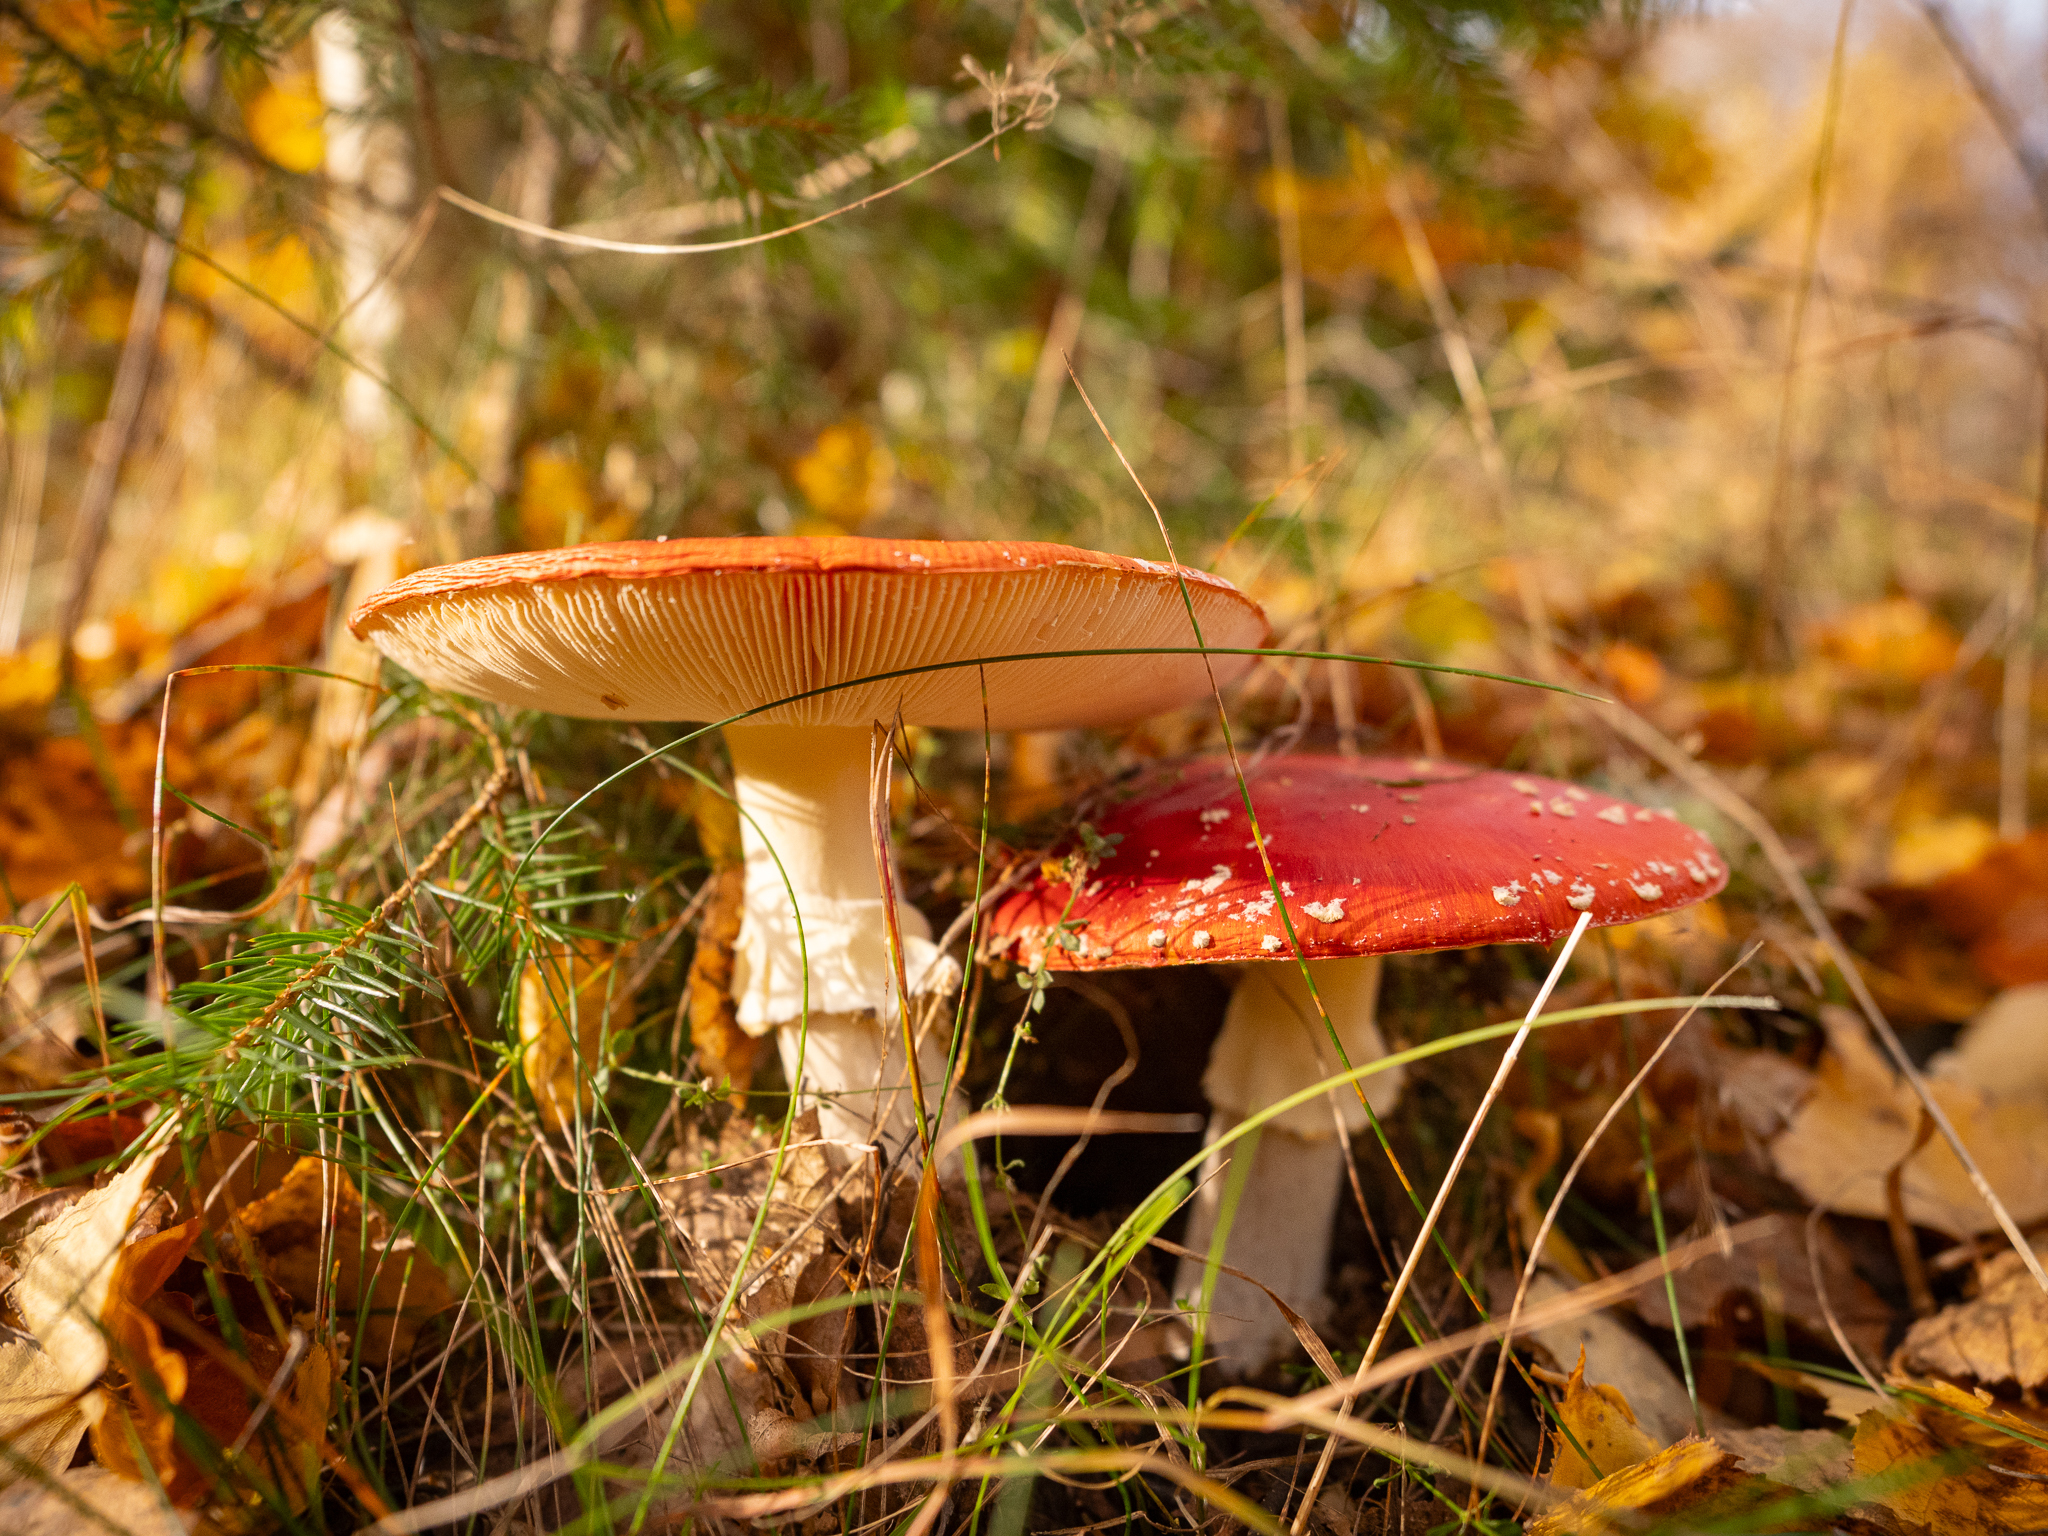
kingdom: Fungi
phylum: Basidiomycota
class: Agaricomycetes
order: Agaricales
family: Amanitaceae
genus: Amanita
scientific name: Amanita muscaria
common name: Fly agaric
